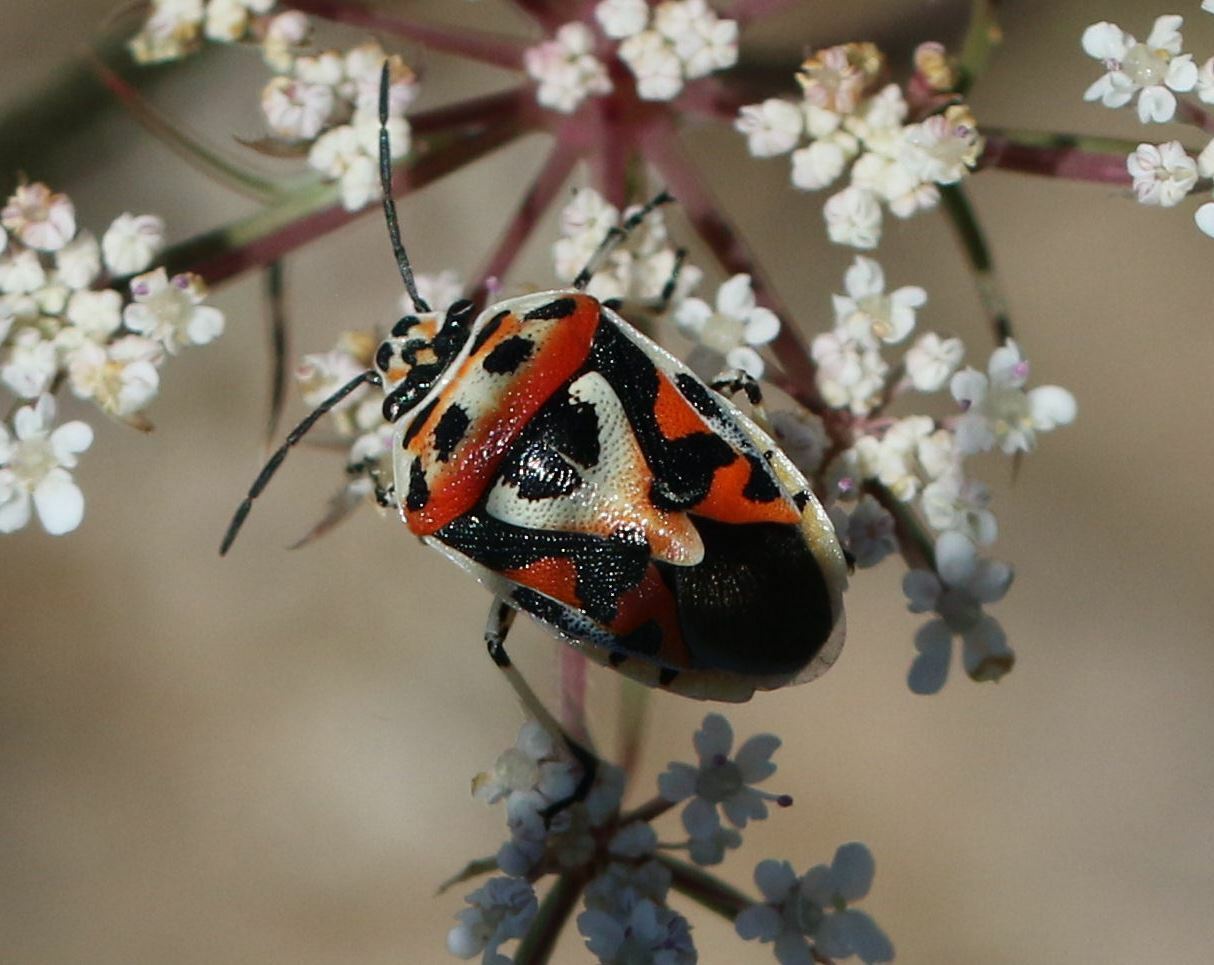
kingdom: Animalia
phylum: Arthropoda
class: Insecta
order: Hemiptera
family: Pentatomidae
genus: Eurydema
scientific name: Eurydema ornata
